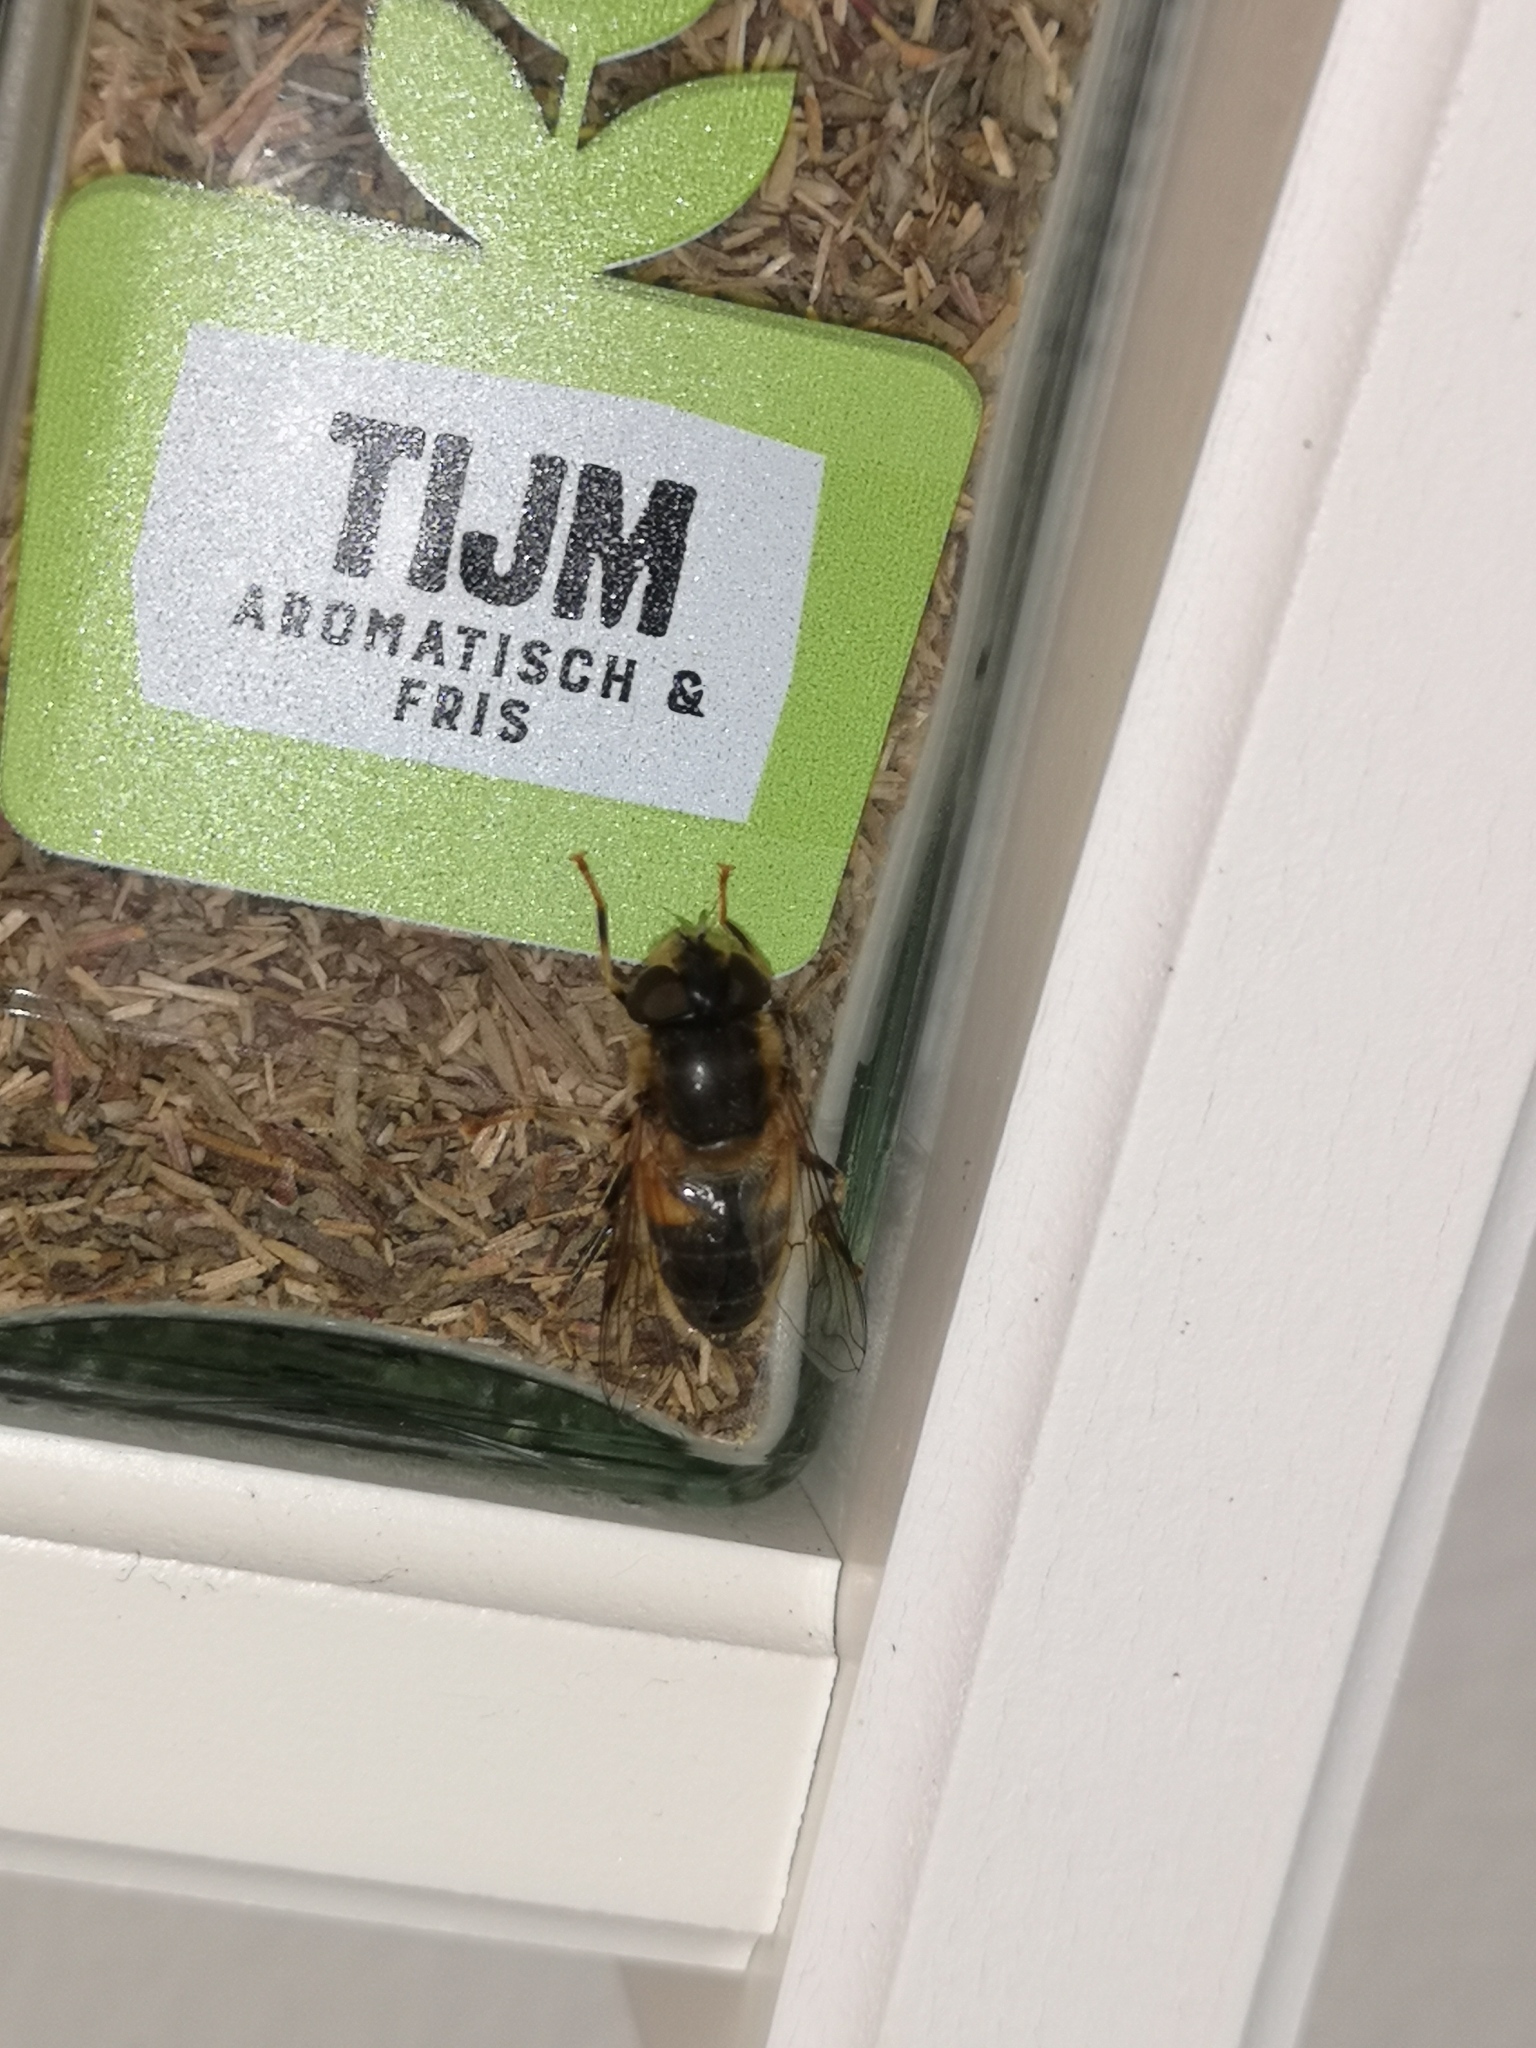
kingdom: Animalia
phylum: Arthropoda
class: Insecta
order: Diptera
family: Syrphidae
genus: Eristalis
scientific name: Eristalis pertinax
